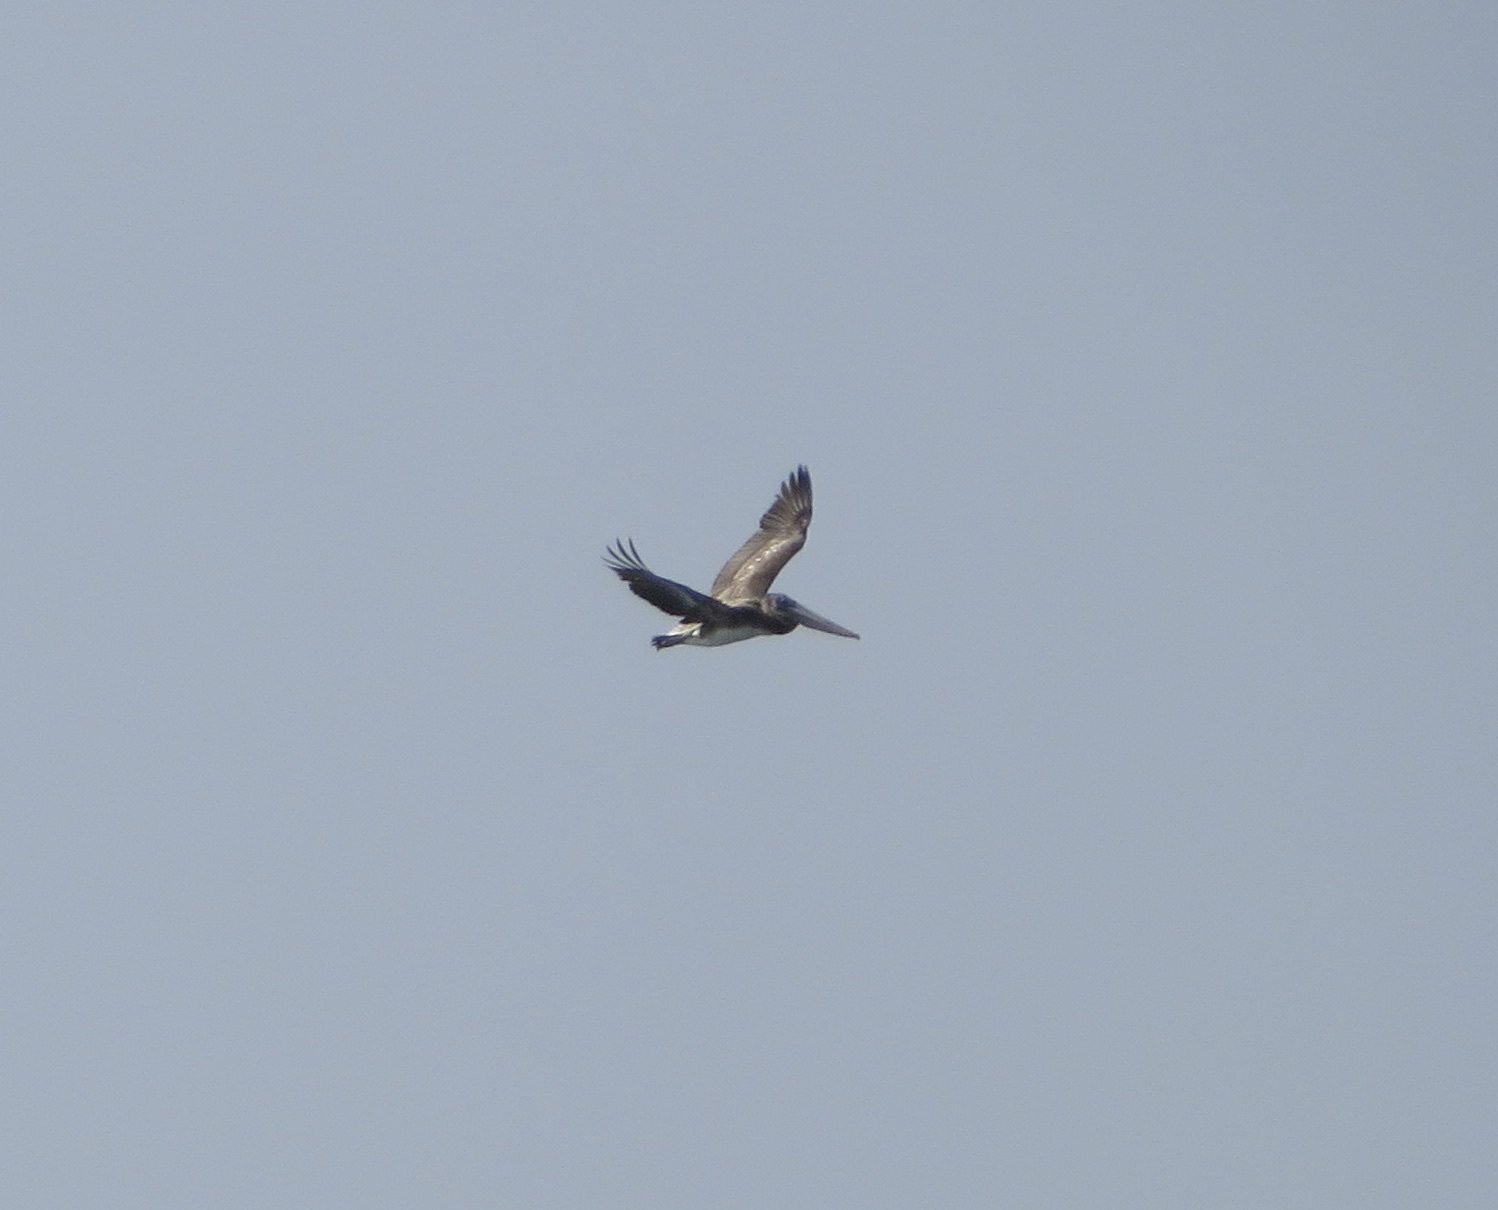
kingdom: Animalia
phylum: Chordata
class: Aves
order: Pelecaniformes
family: Pelecanidae
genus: Pelecanus
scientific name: Pelecanus occidentalis
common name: Brown pelican
